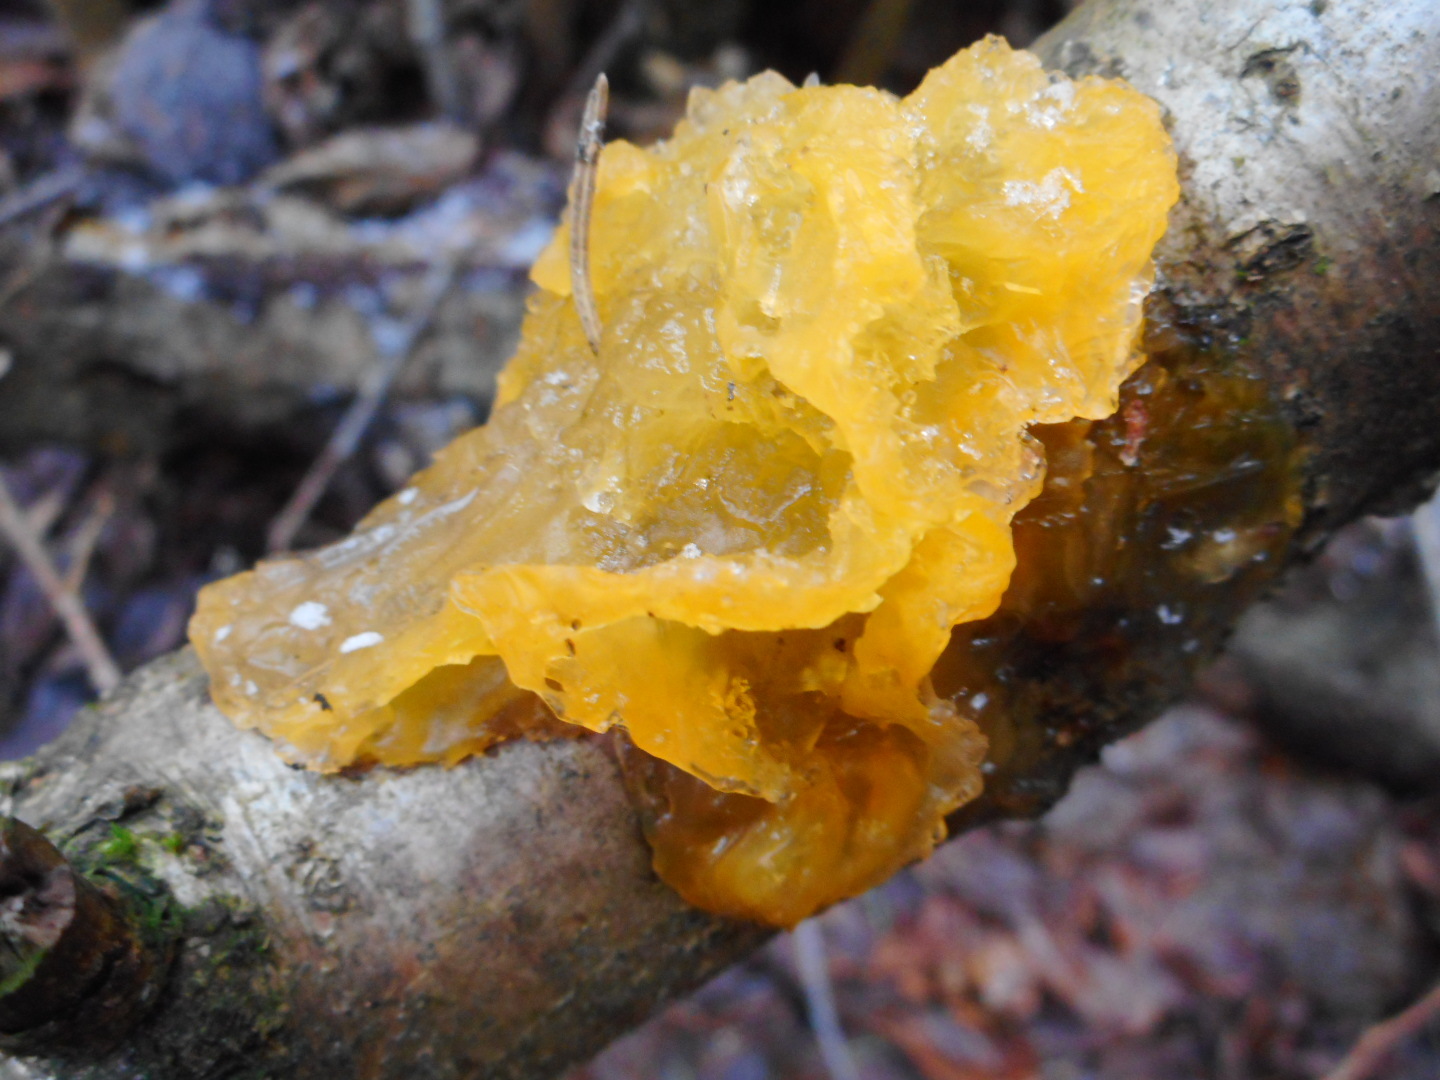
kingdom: Fungi
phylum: Basidiomycota
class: Tremellomycetes
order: Tremellales
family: Tremellaceae
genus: Tremella
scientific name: Tremella mesenterica
